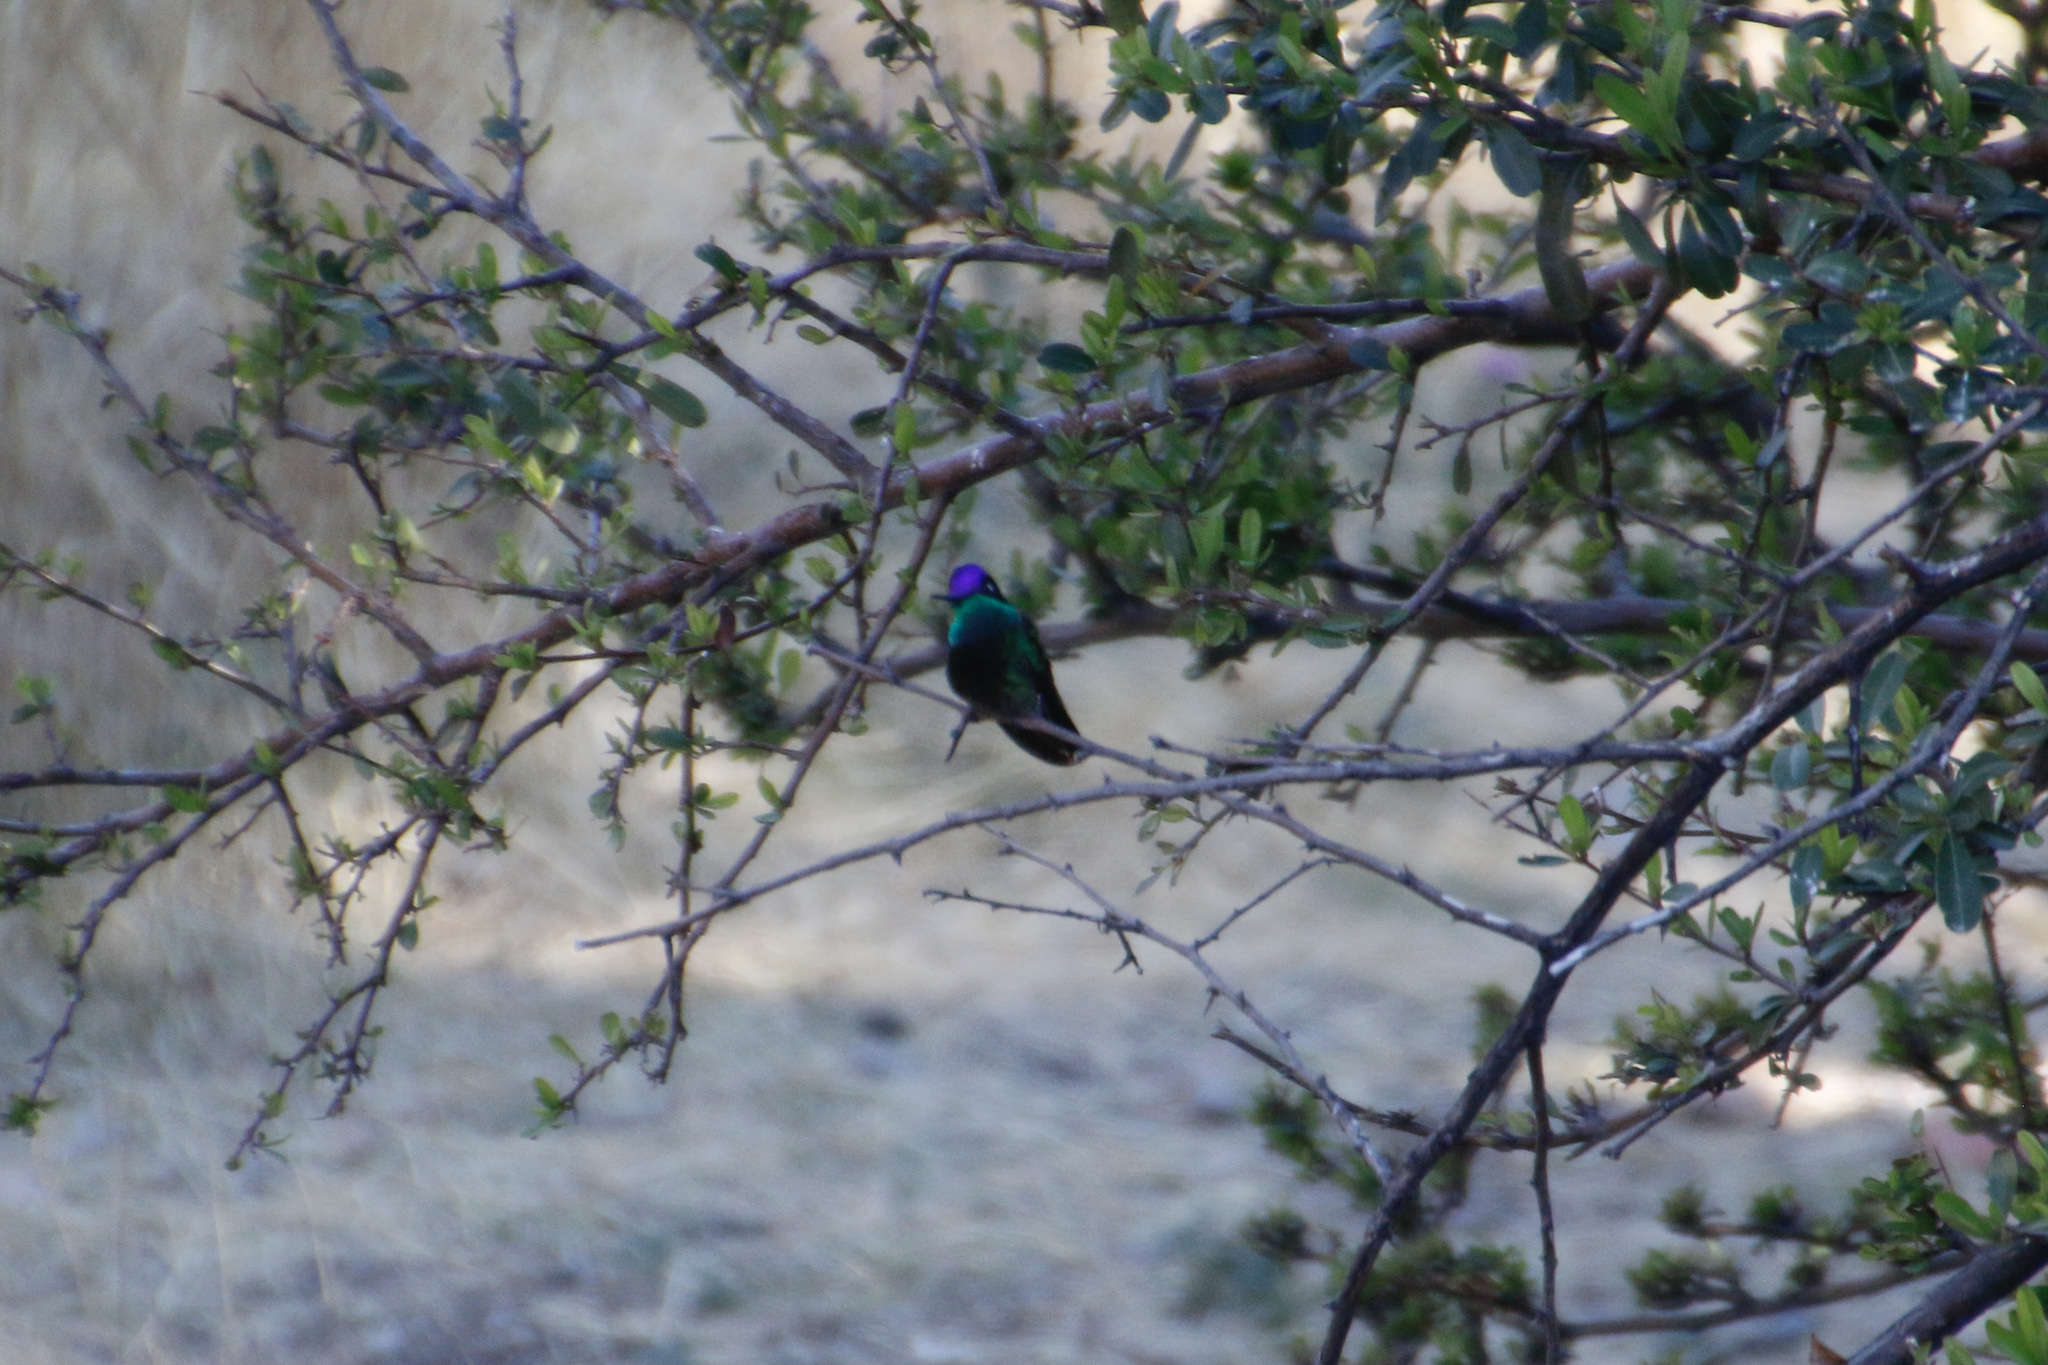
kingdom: Animalia
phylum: Chordata
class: Aves
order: Apodiformes
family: Trochilidae
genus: Eugenes
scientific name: Eugenes fulgens
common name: Magnificent hummingbird
